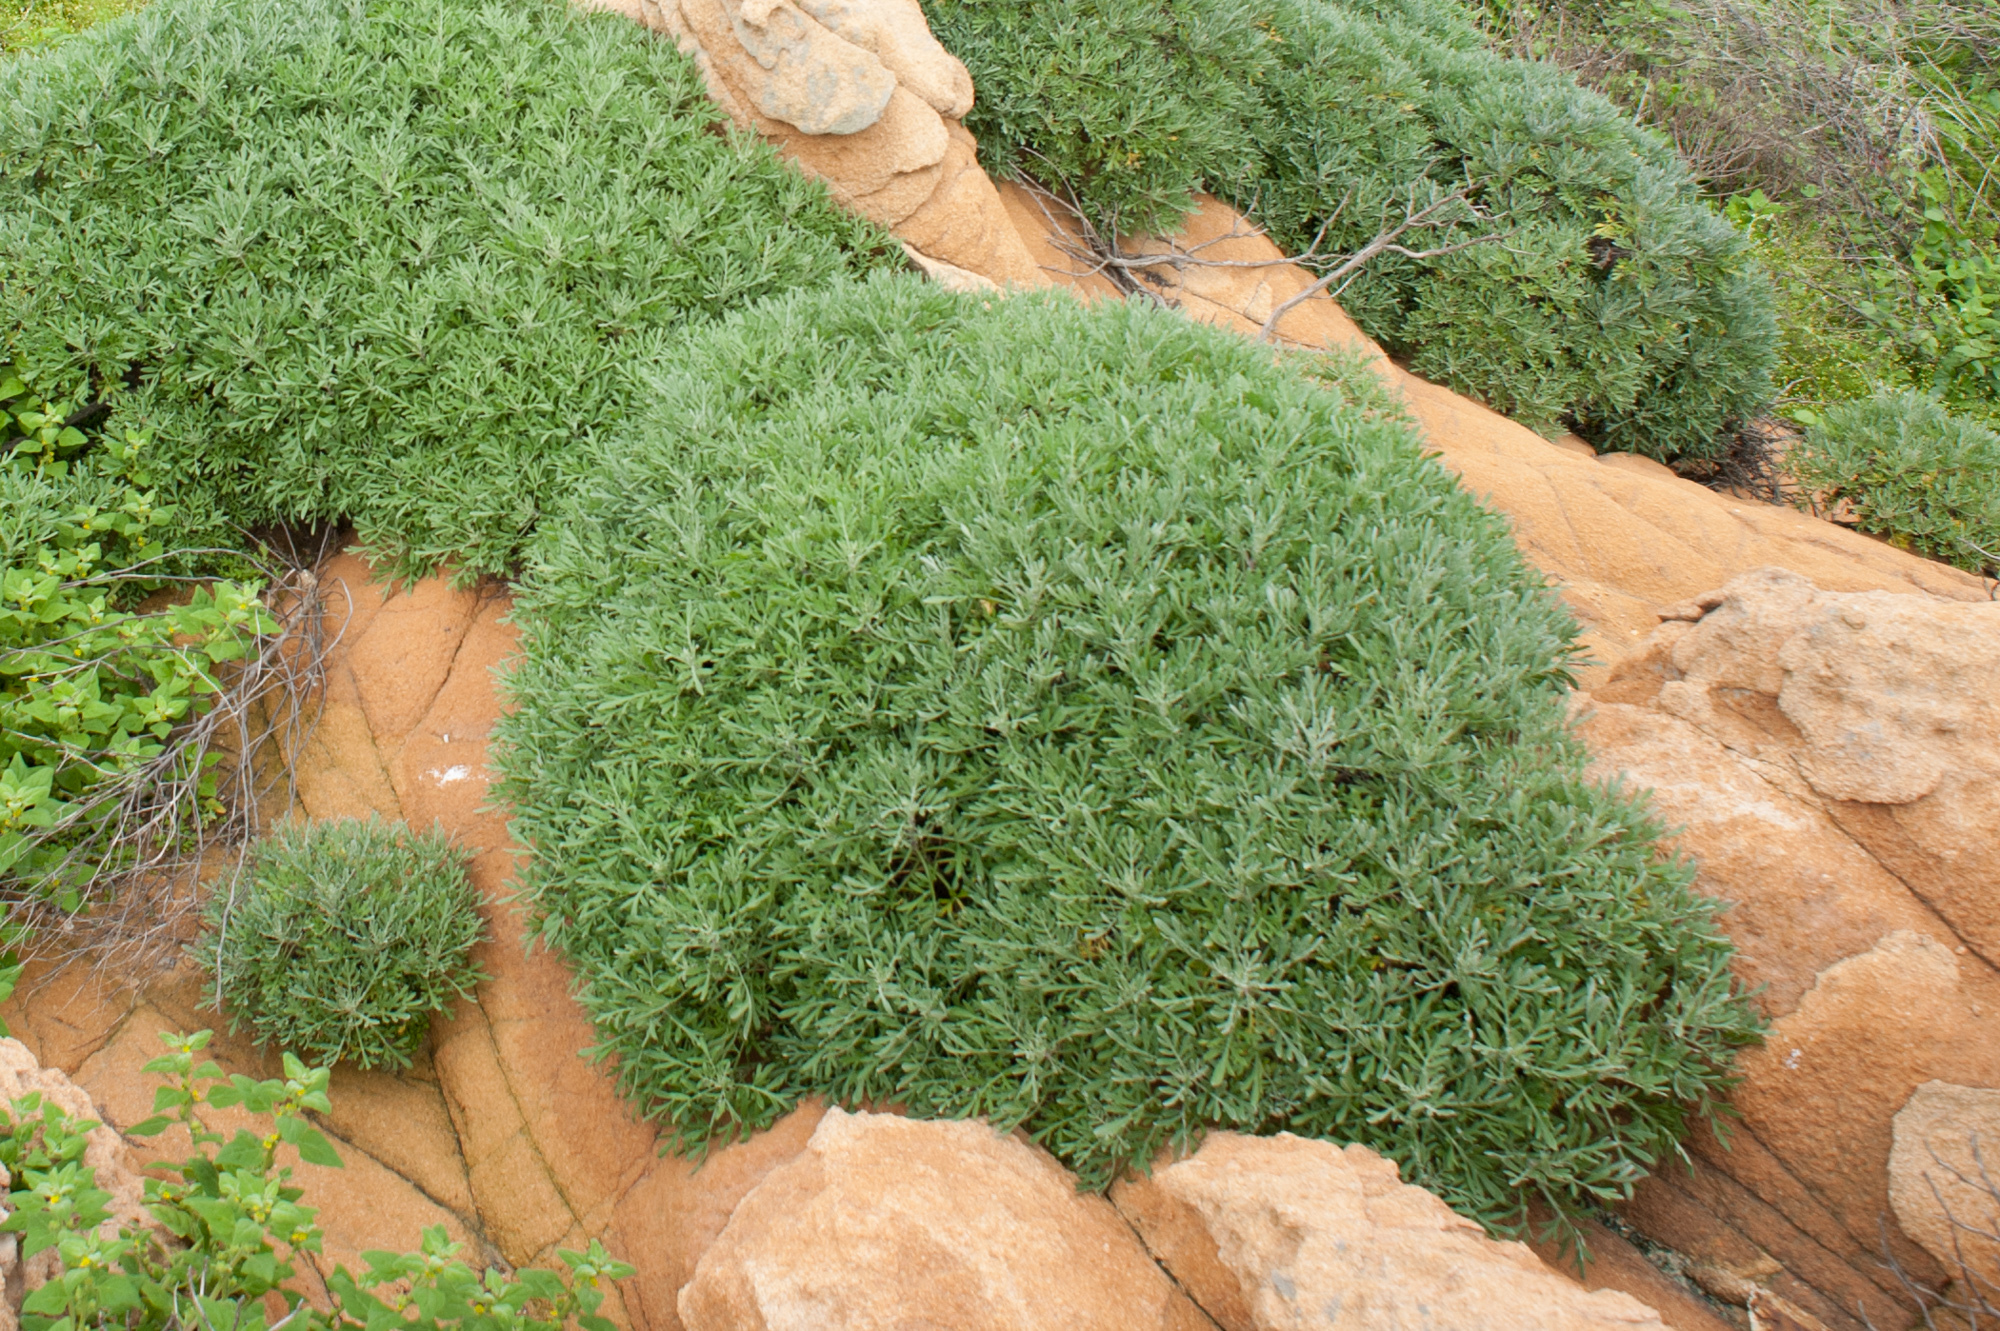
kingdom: Plantae
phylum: Tracheophyta
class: Magnoliopsida
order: Asterales
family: Asteraceae
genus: Crossostephium
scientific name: Crossostephium chinense
